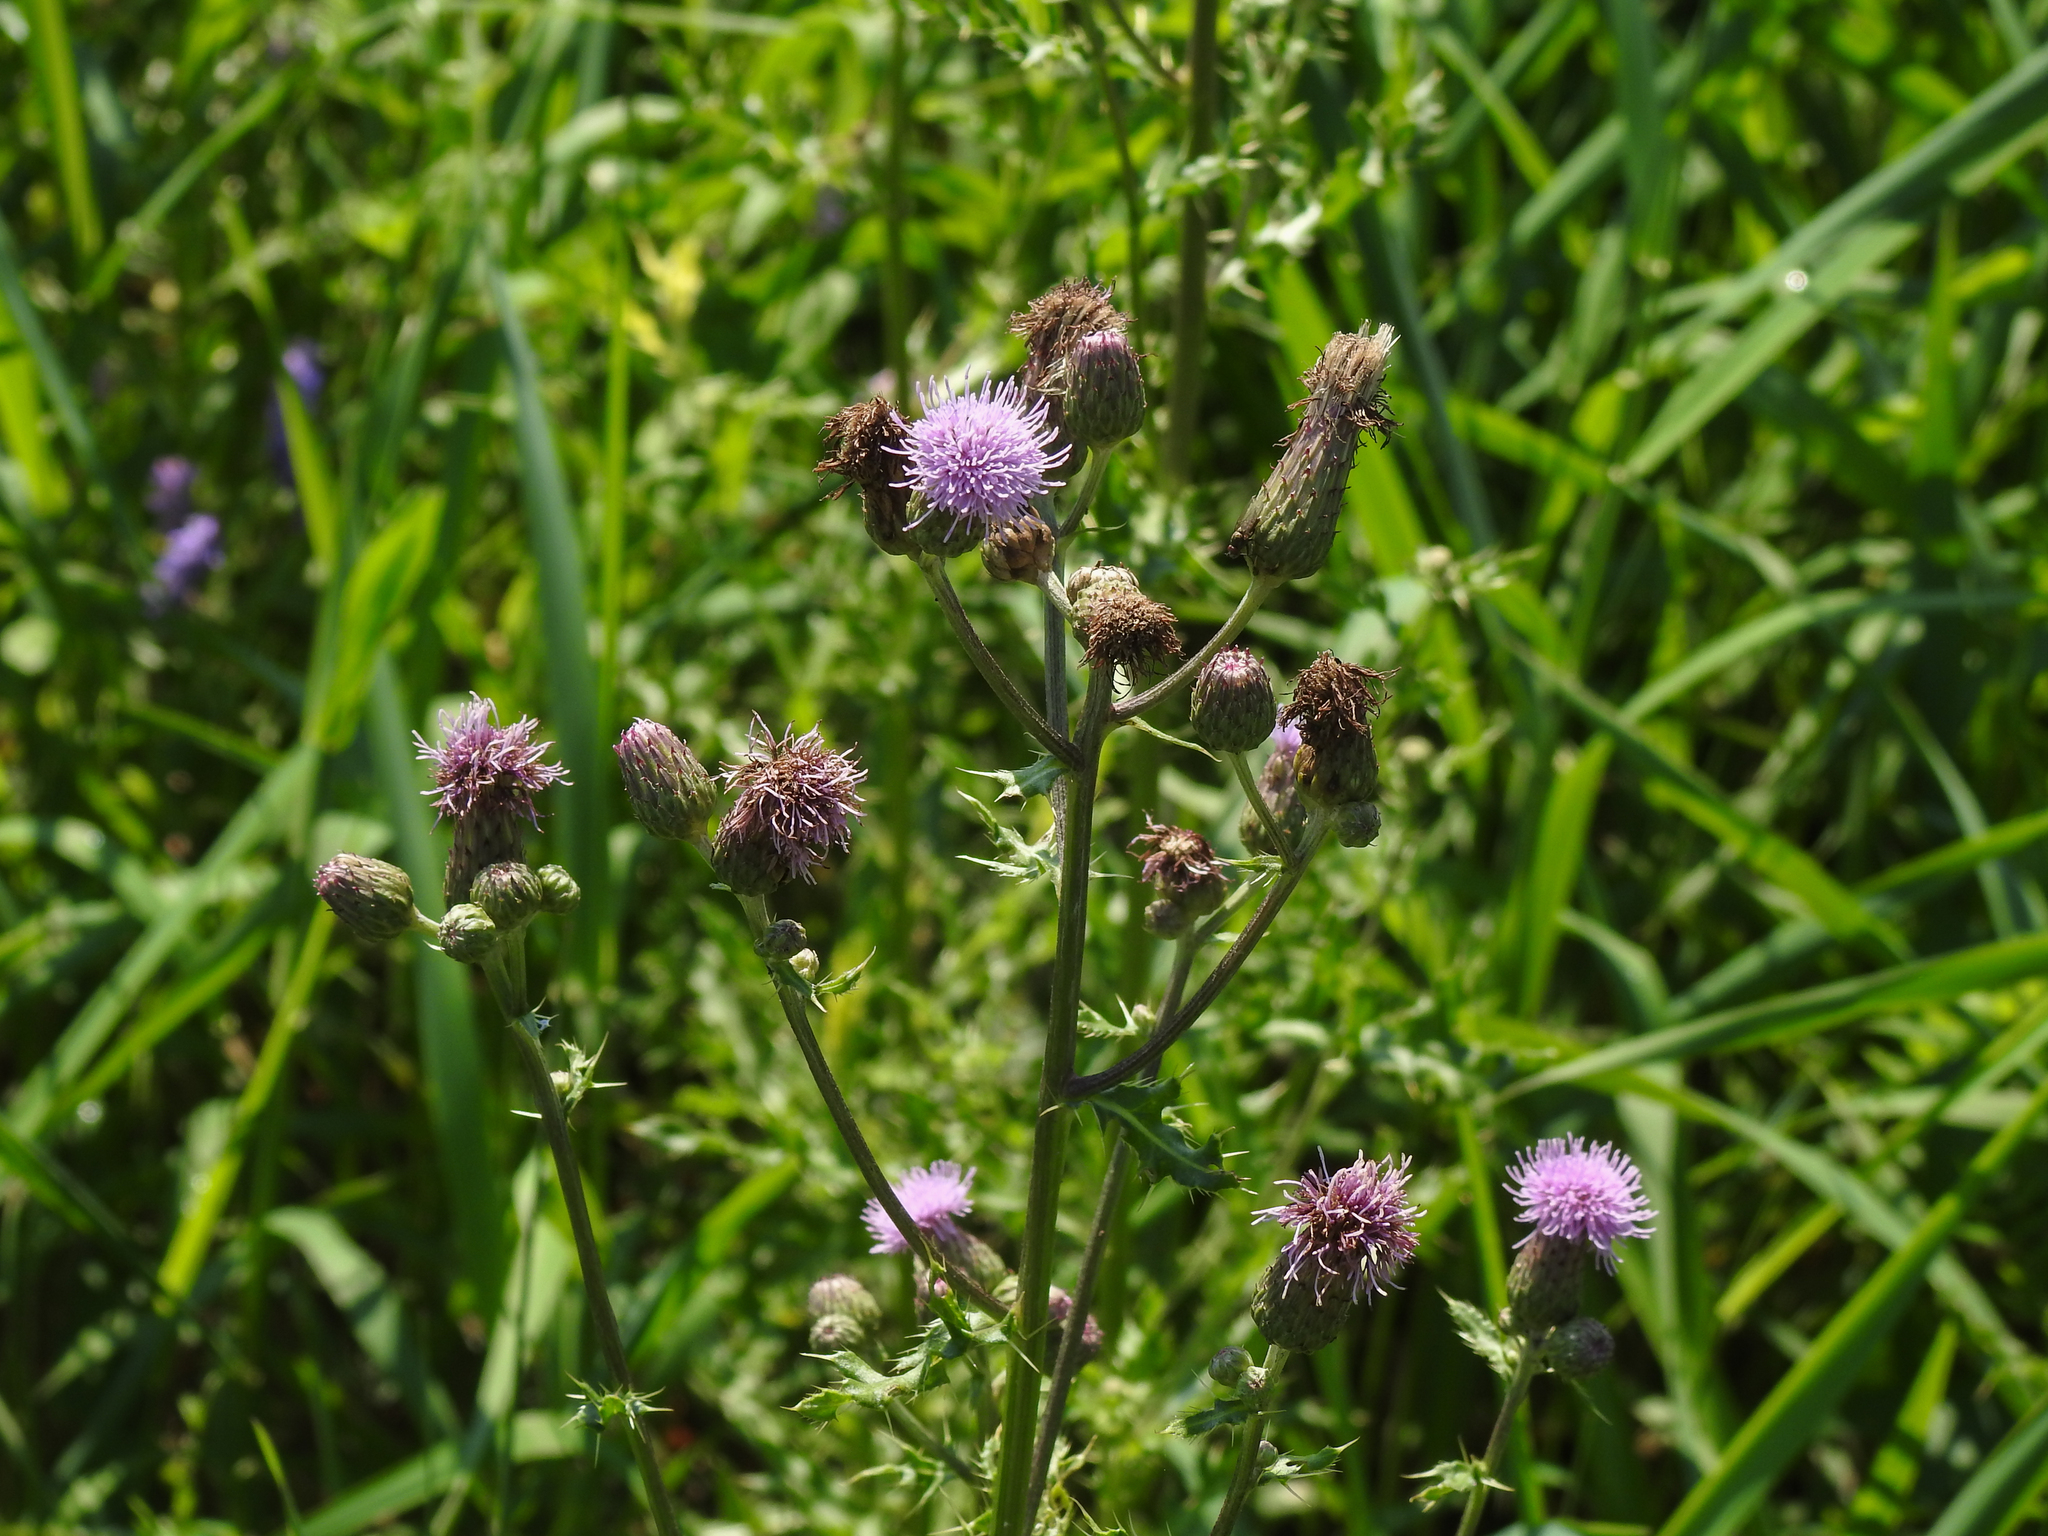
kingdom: Plantae
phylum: Tracheophyta
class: Magnoliopsida
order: Asterales
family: Asteraceae
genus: Cirsium
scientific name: Cirsium arvense
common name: Creeping thistle
